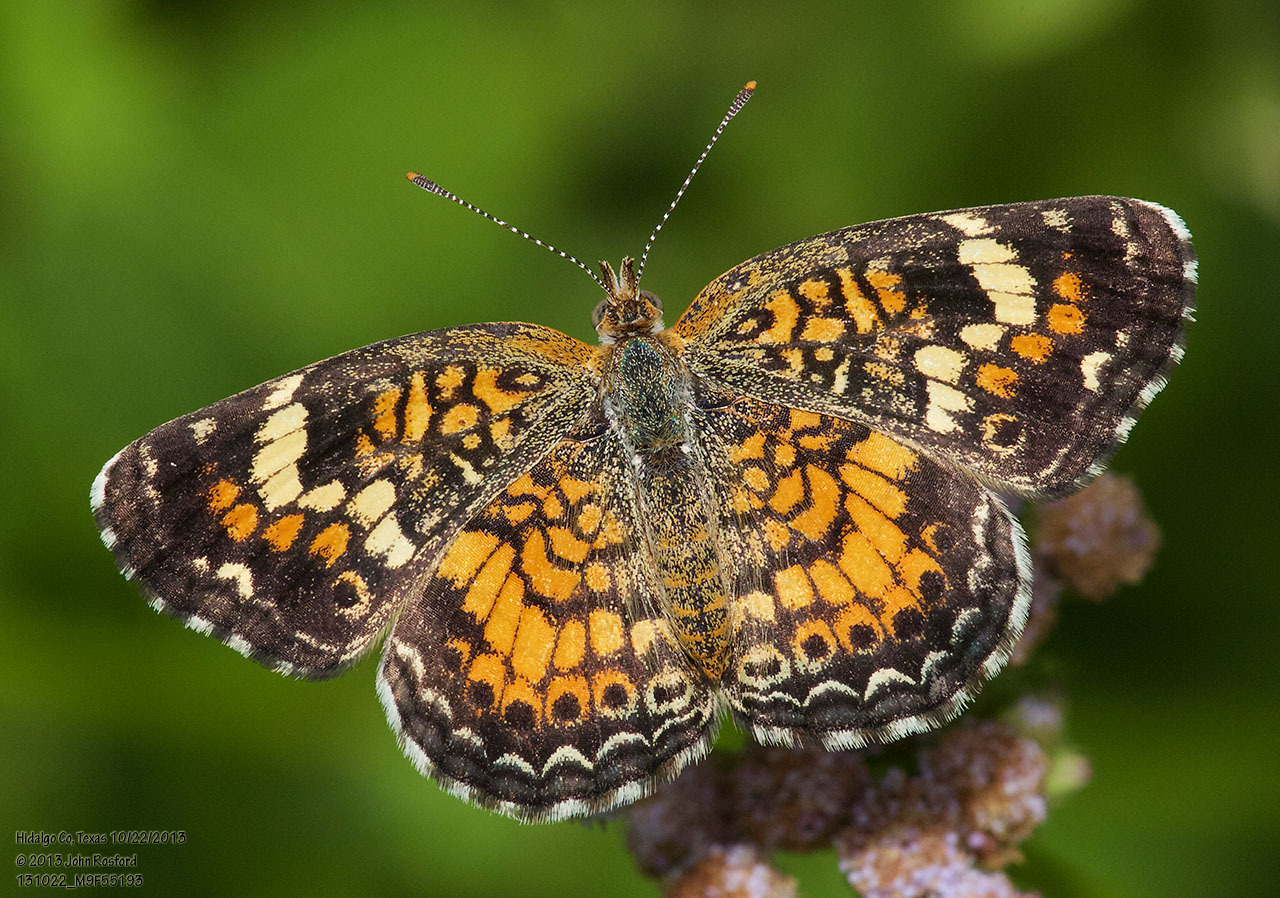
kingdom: Animalia
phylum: Arthropoda
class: Insecta
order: Lepidoptera
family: Nymphalidae
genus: Phyciodes
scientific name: Phyciodes phaon
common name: Phaon crescent
